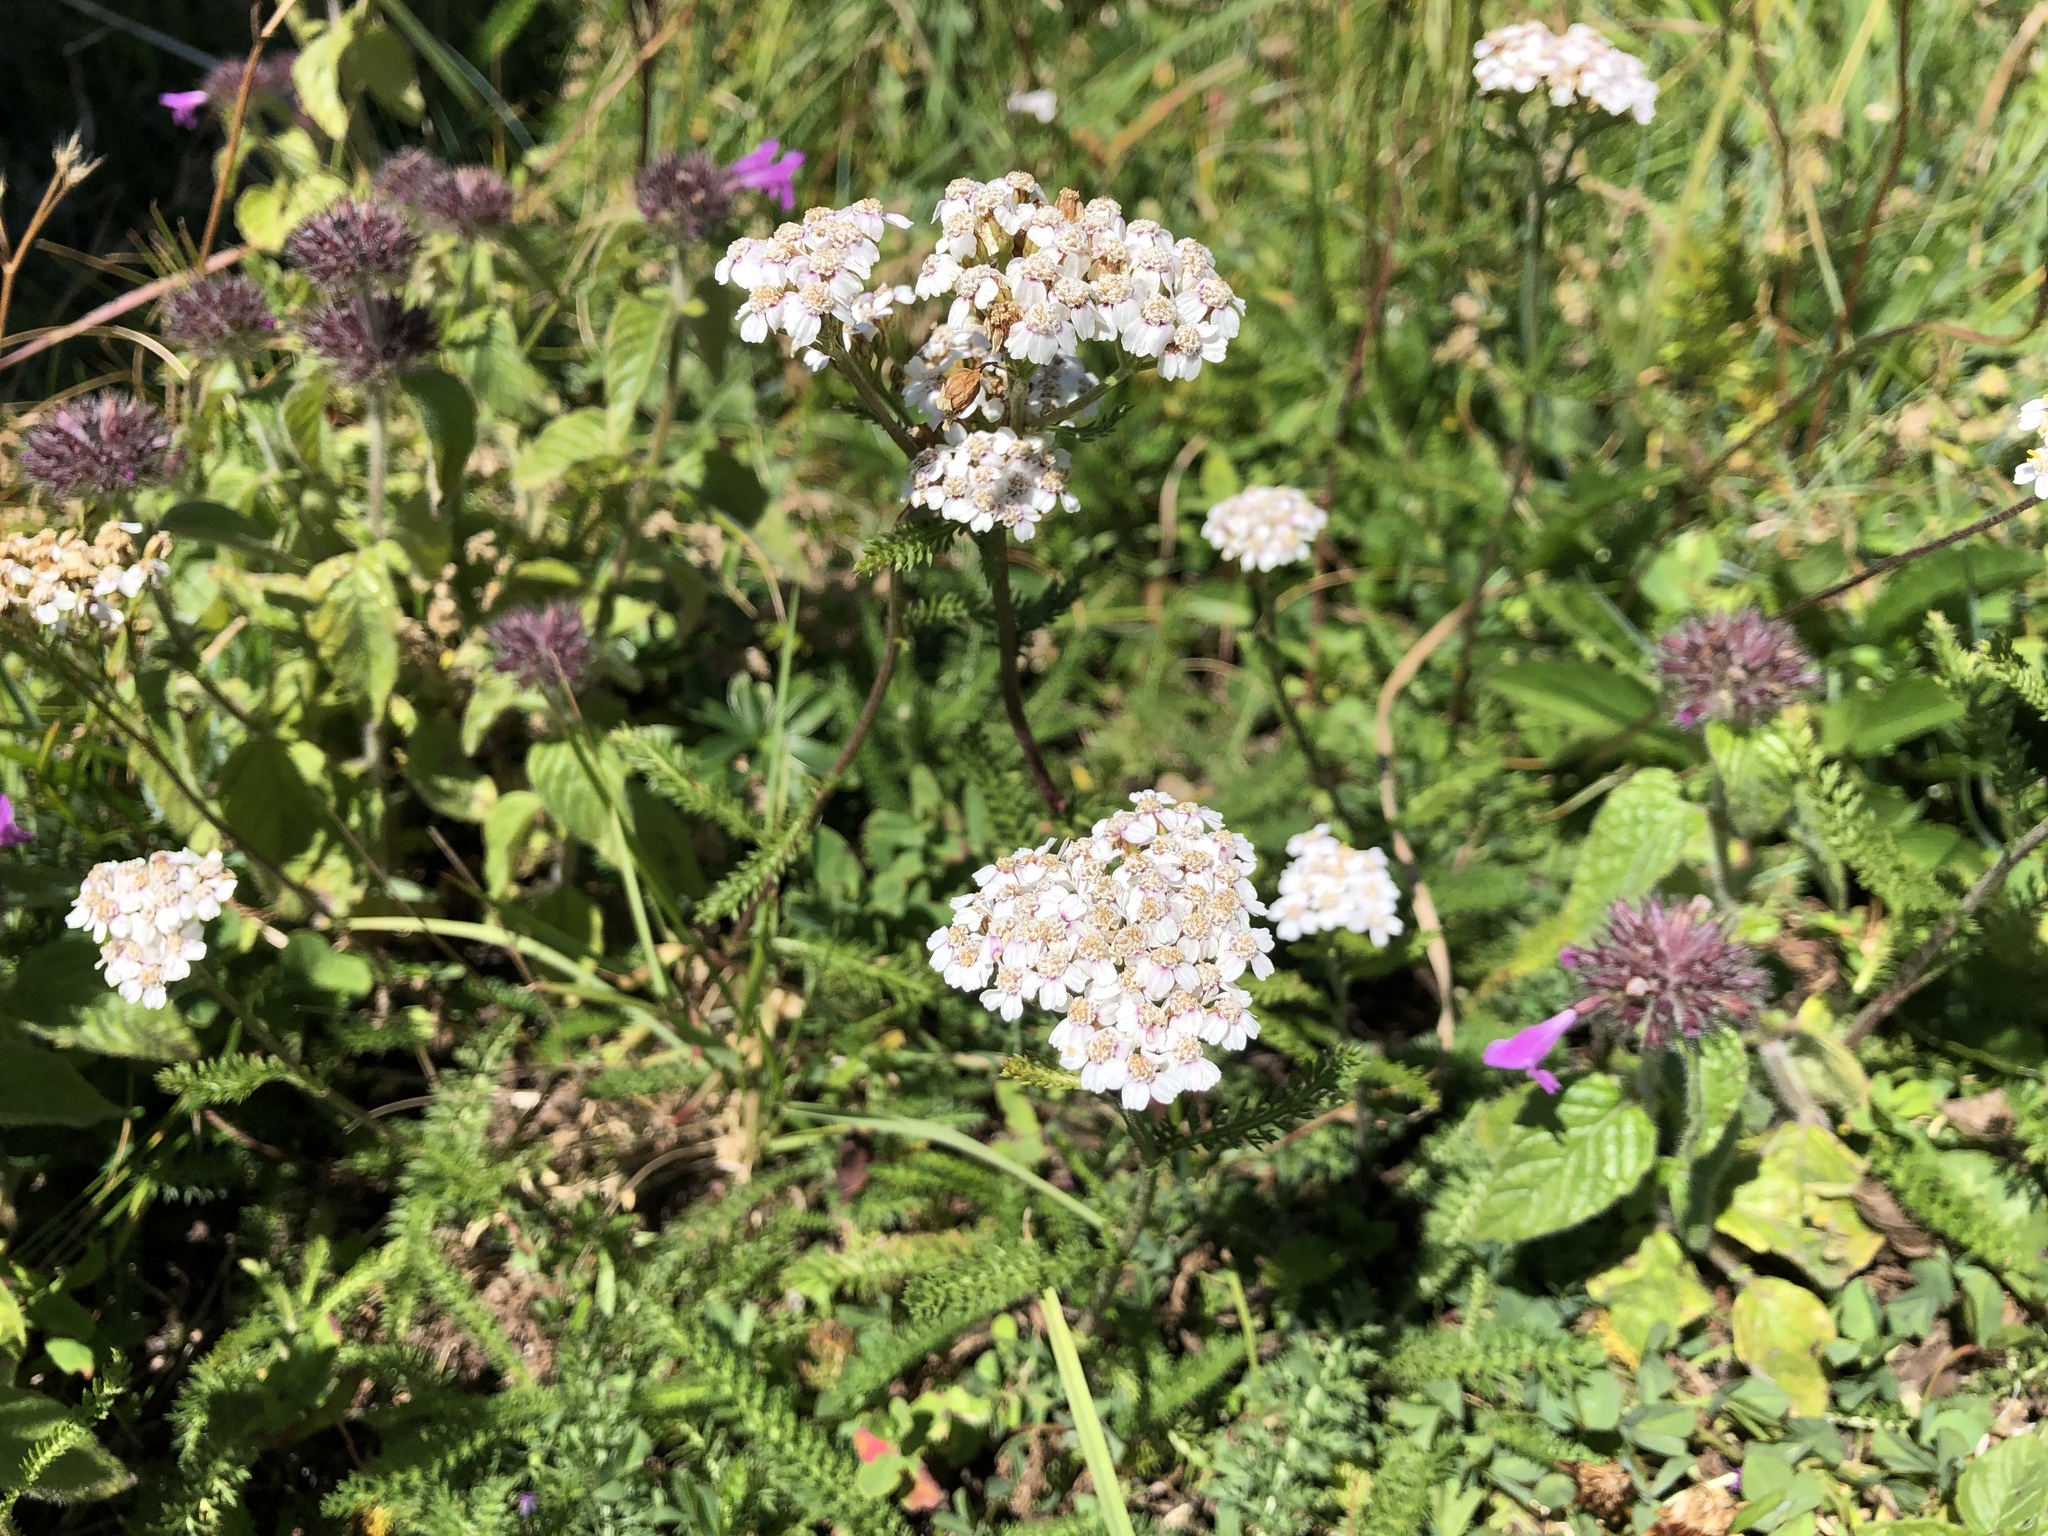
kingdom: Plantae
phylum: Tracheophyta
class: Magnoliopsida
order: Asterales
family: Asteraceae
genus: Achillea
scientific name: Achillea millefolium
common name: Yarrow
